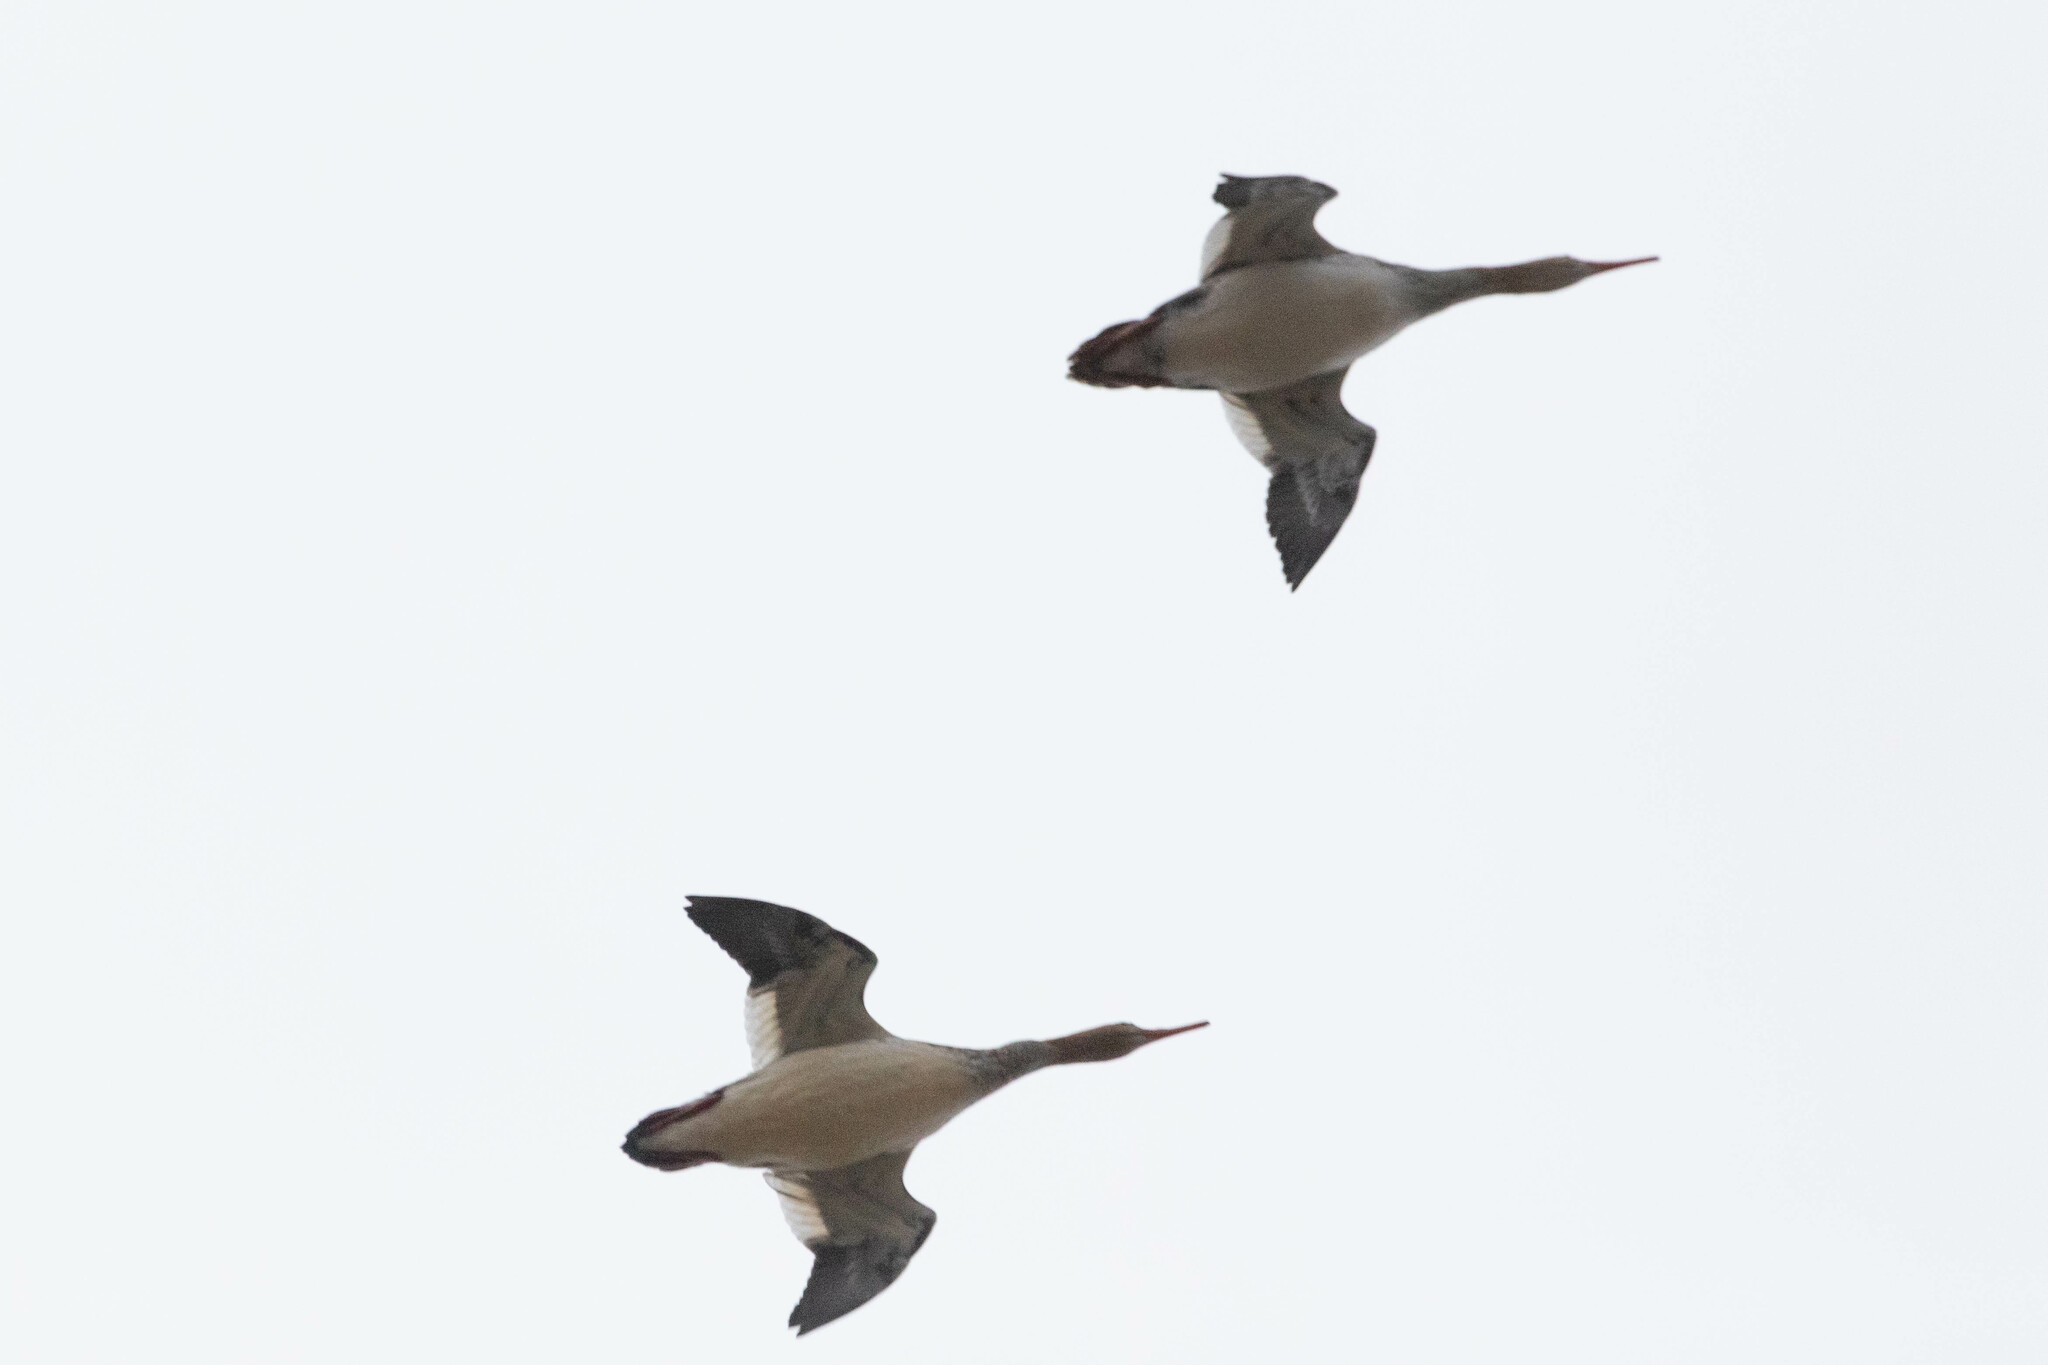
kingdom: Animalia
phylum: Chordata
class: Aves
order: Anseriformes
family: Anatidae
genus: Mergus
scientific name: Mergus serrator
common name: Red-breasted merganser
